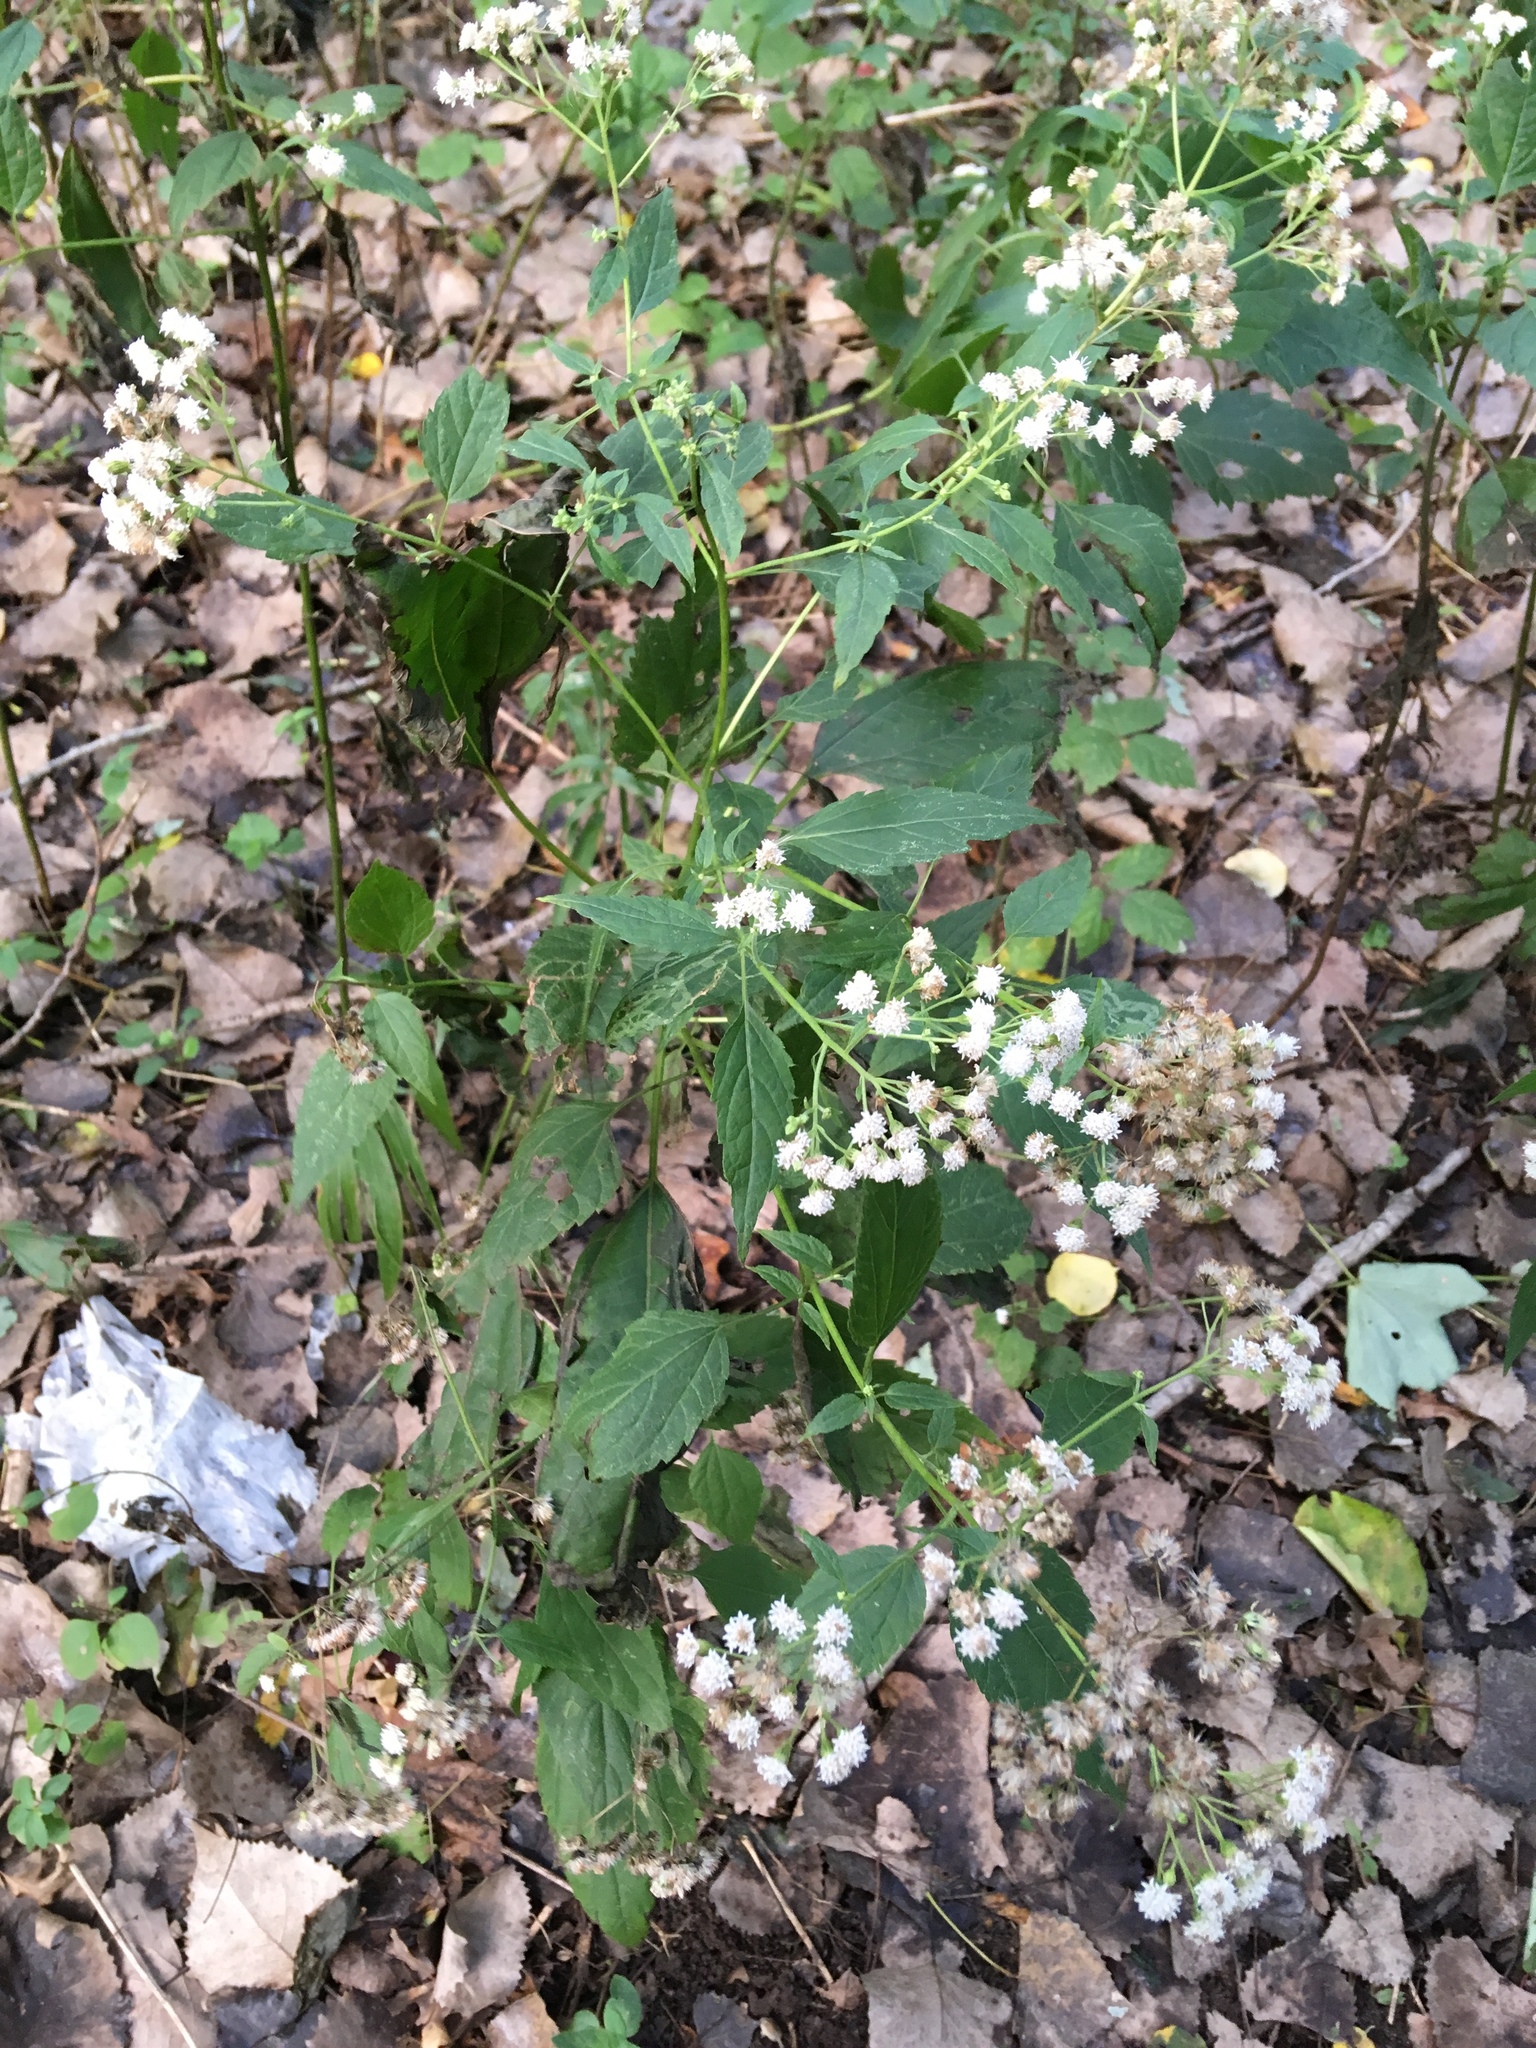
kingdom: Plantae
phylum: Tracheophyta
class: Magnoliopsida
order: Asterales
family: Asteraceae
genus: Ageratina
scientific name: Ageratina altissima
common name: White snakeroot
